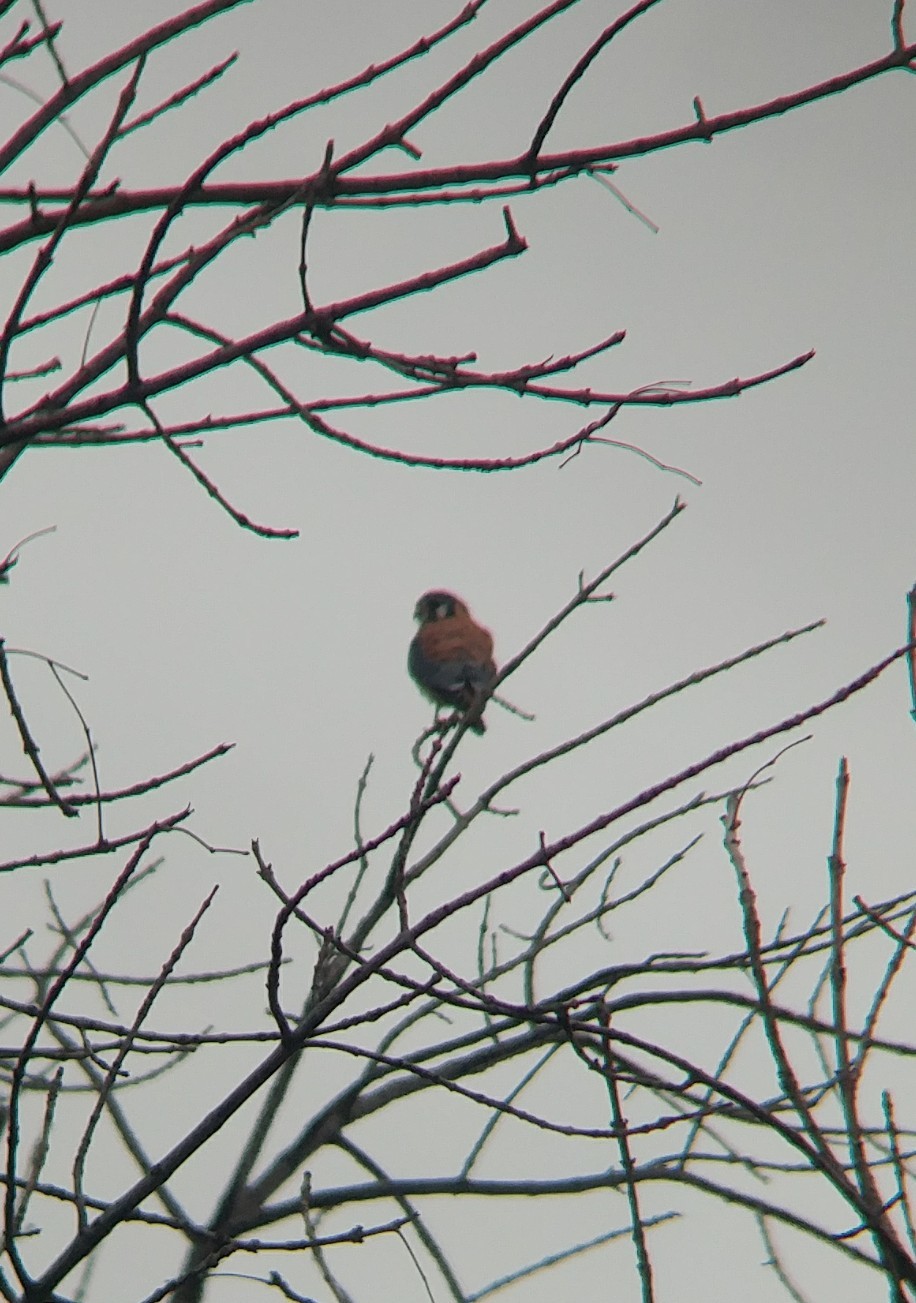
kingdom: Animalia
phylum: Chordata
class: Aves
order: Falconiformes
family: Falconidae
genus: Falco
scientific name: Falco sparverius
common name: American kestrel
